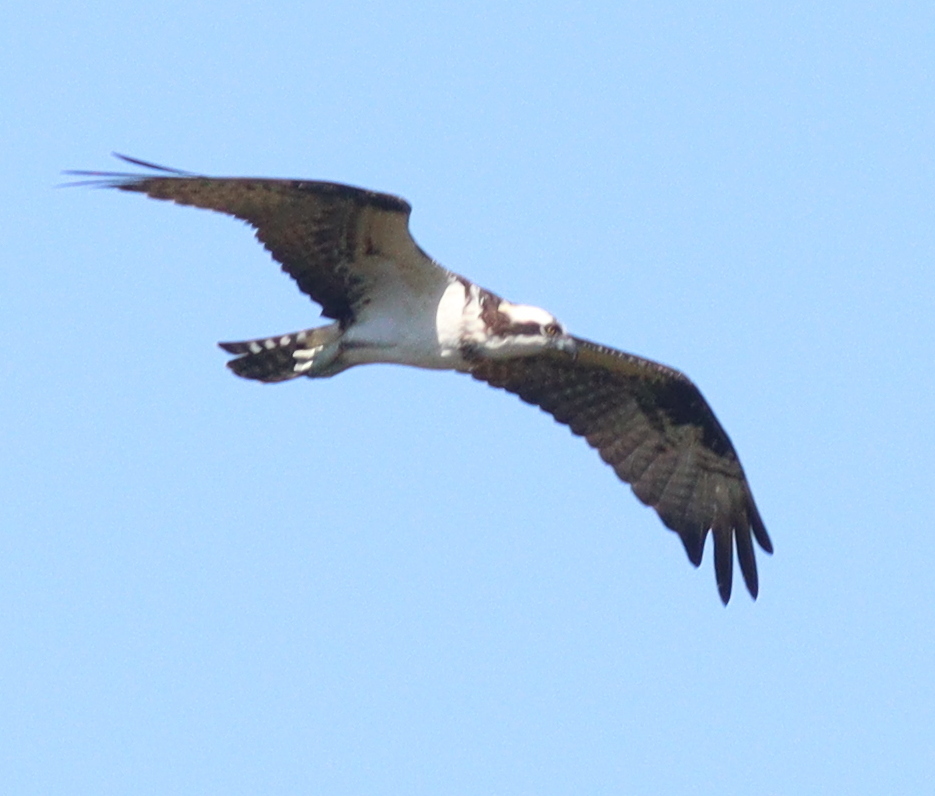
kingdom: Animalia
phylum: Chordata
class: Aves
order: Accipitriformes
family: Pandionidae
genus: Pandion
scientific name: Pandion haliaetus
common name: Osprey
